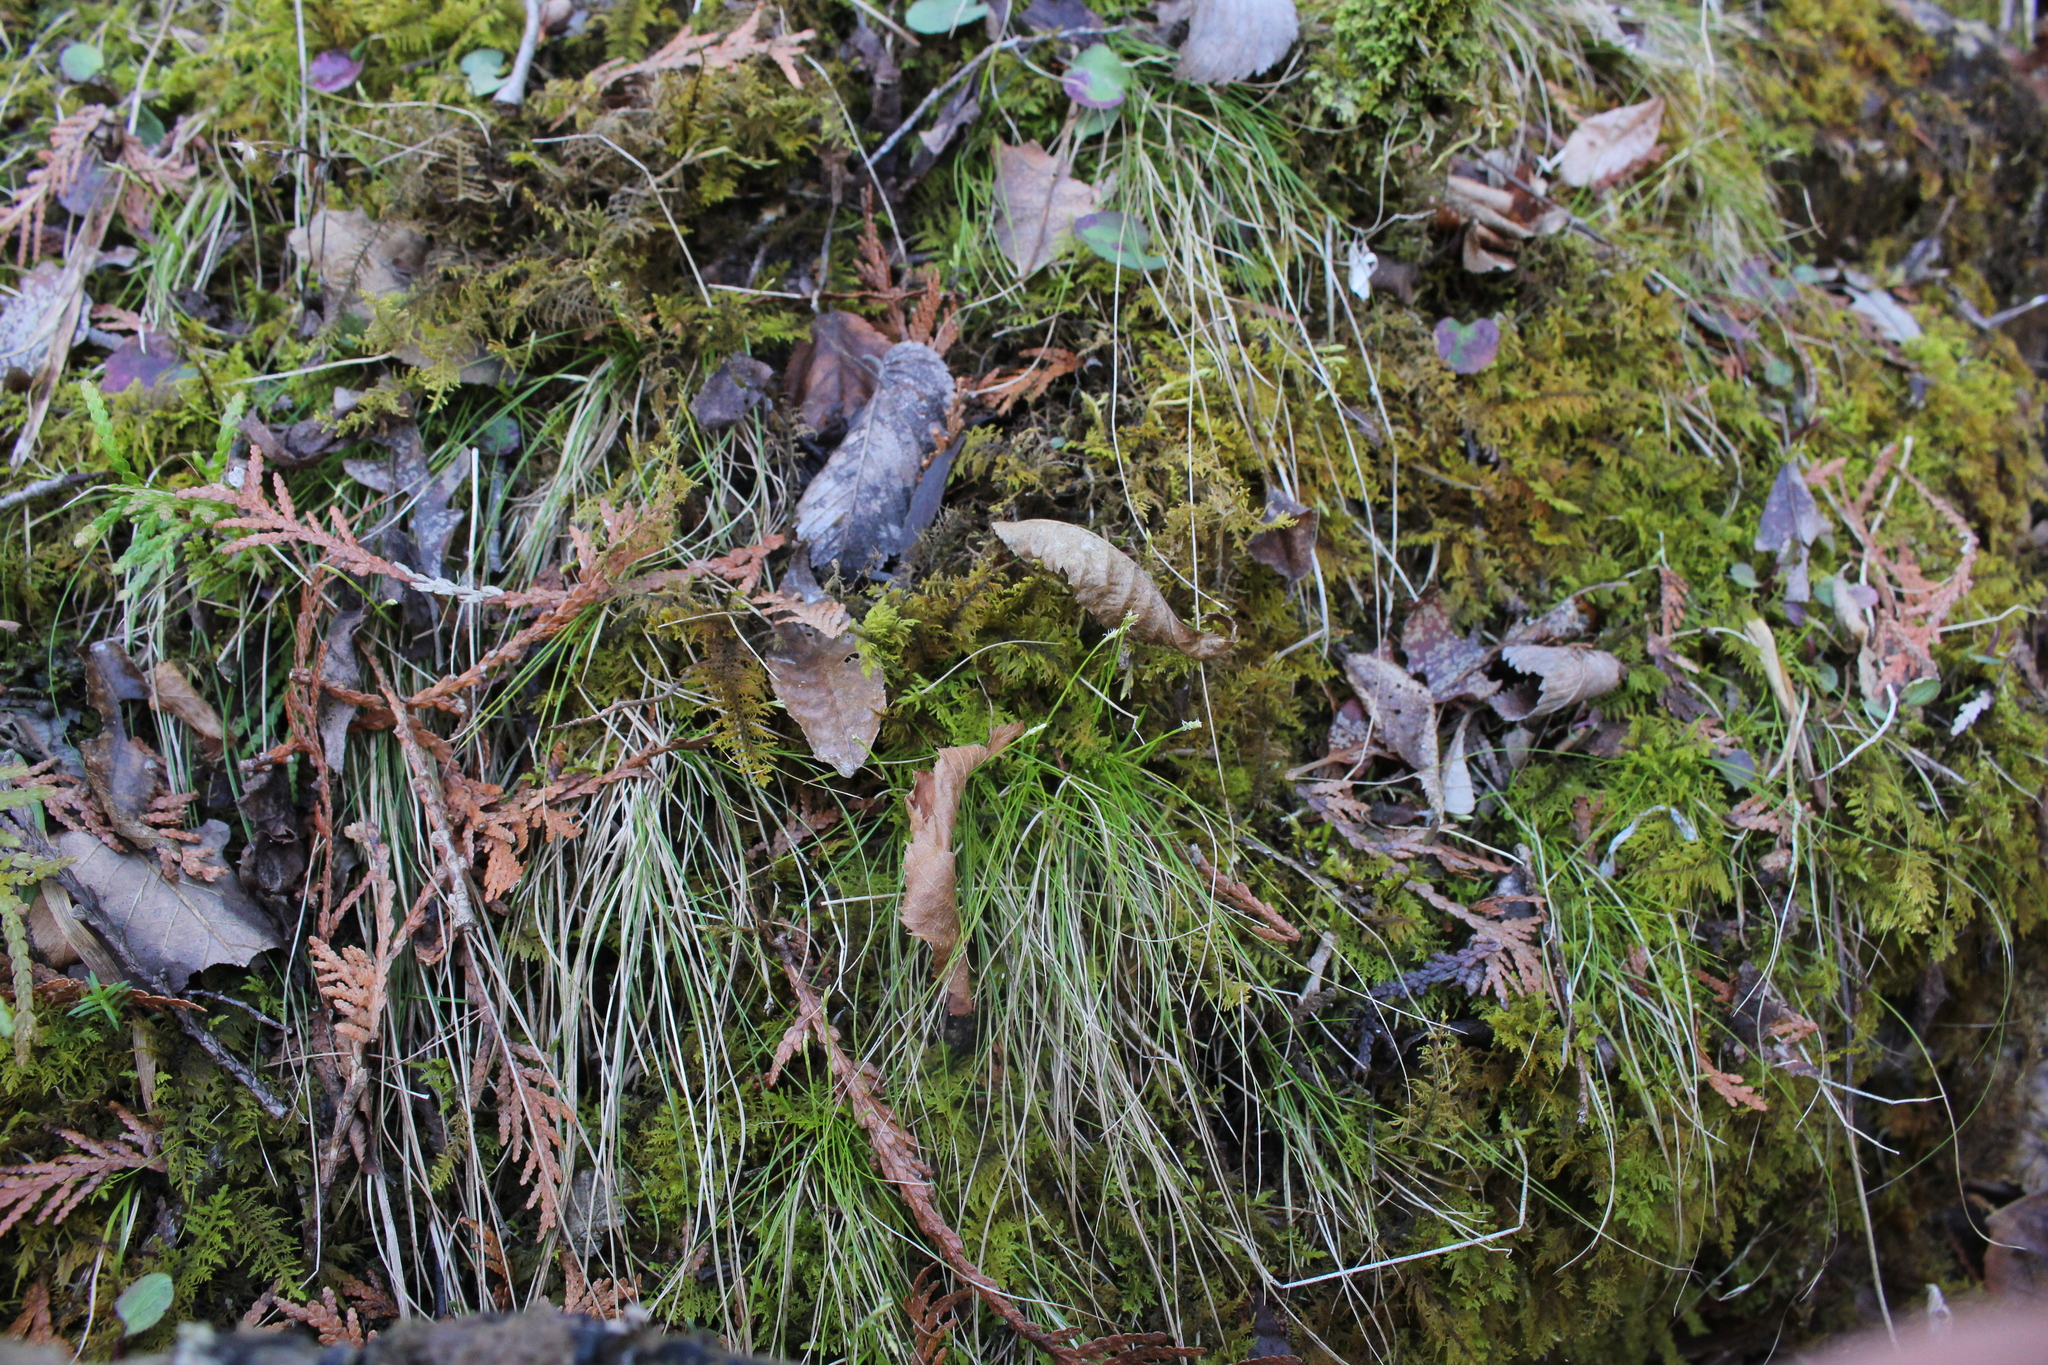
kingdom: Plantae
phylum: Tracheophyta
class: Liliopsida
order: Poales
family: Cyperaceae
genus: Carex
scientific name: Carex eburnea
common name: Bristle-leaved sedge
